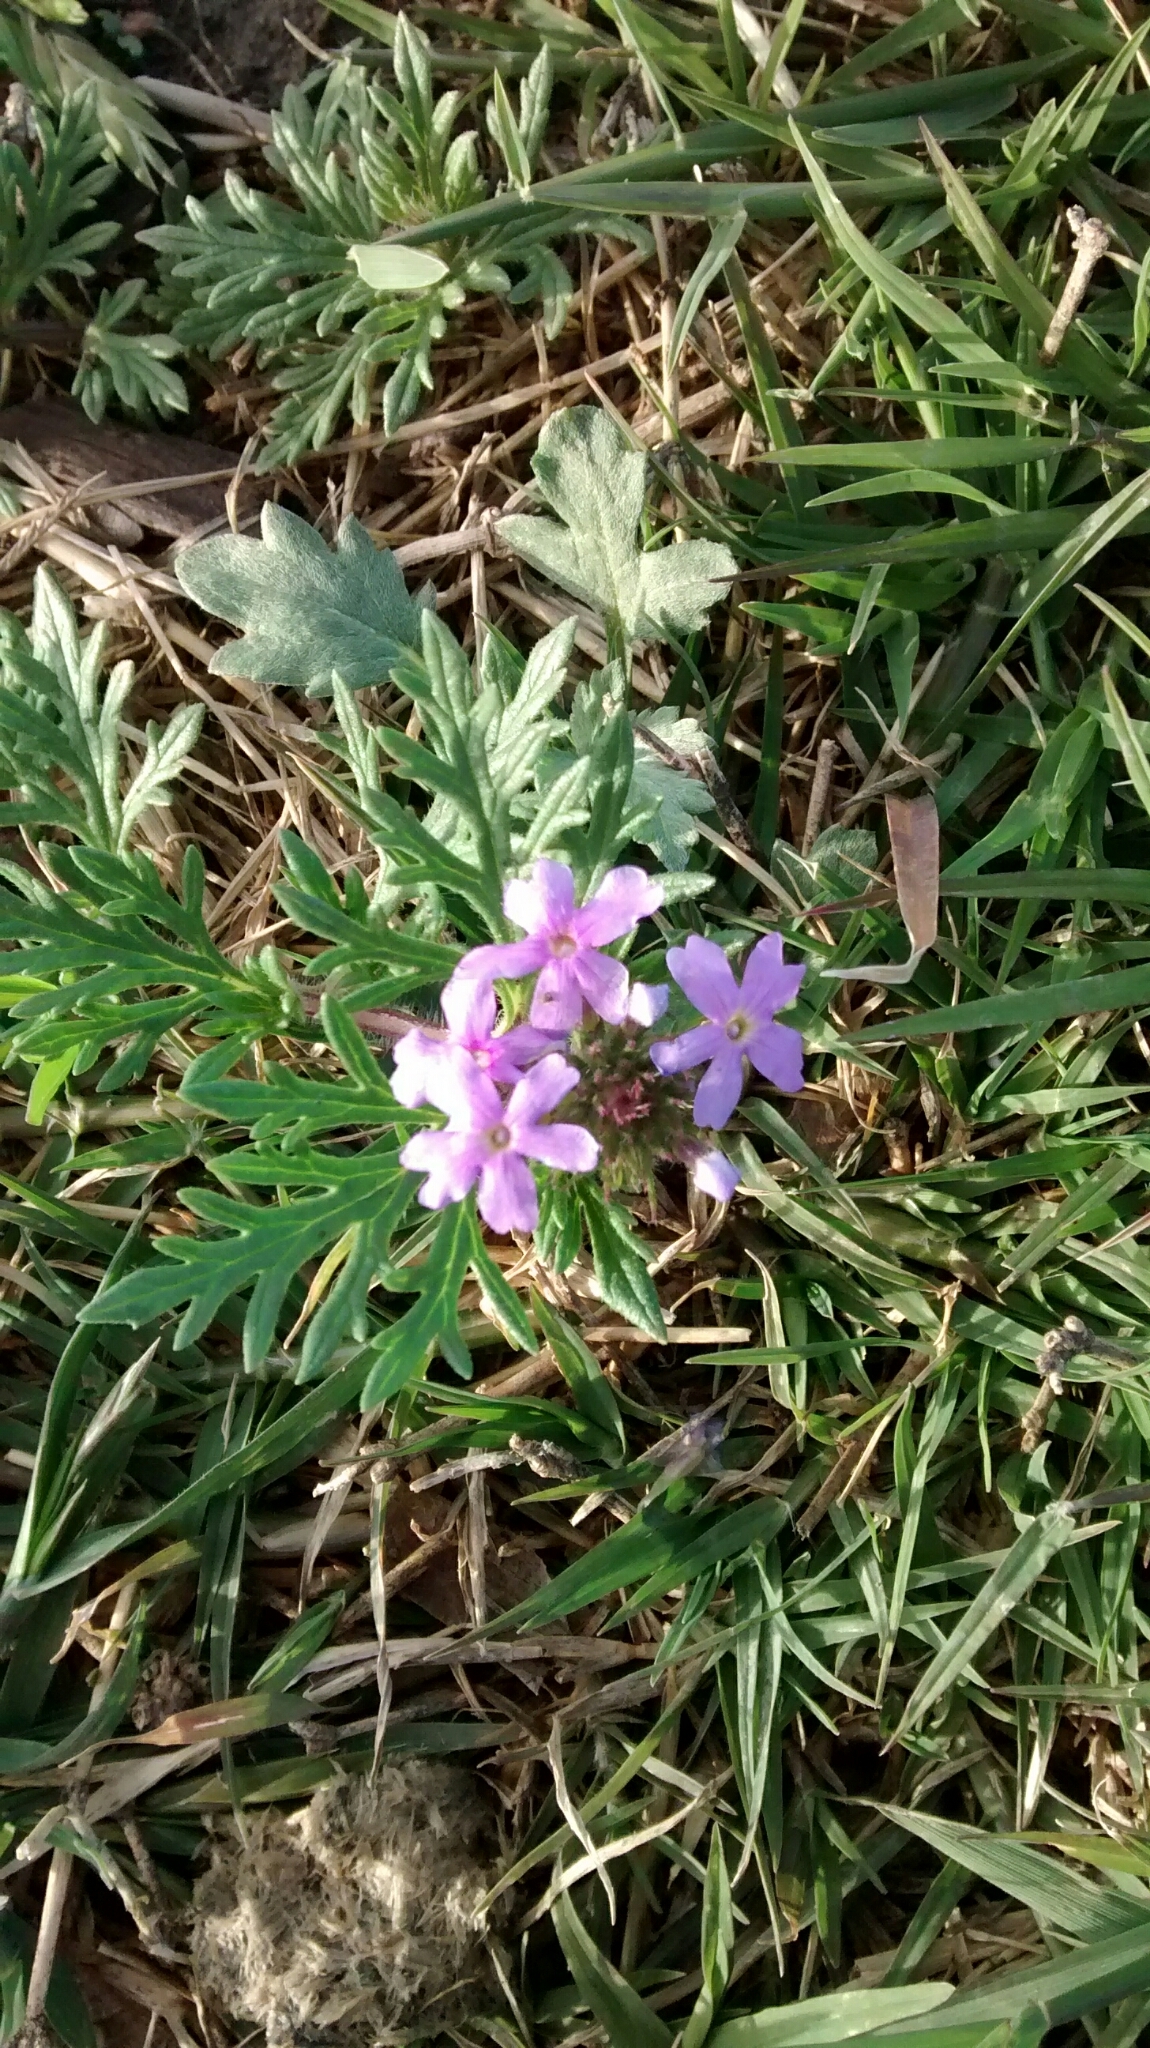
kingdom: Plantae
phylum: Tracheophyta
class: Magnoliopsida
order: Lamiales
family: Verbenaceae
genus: Verbena
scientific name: Verbena bipinnatifida
